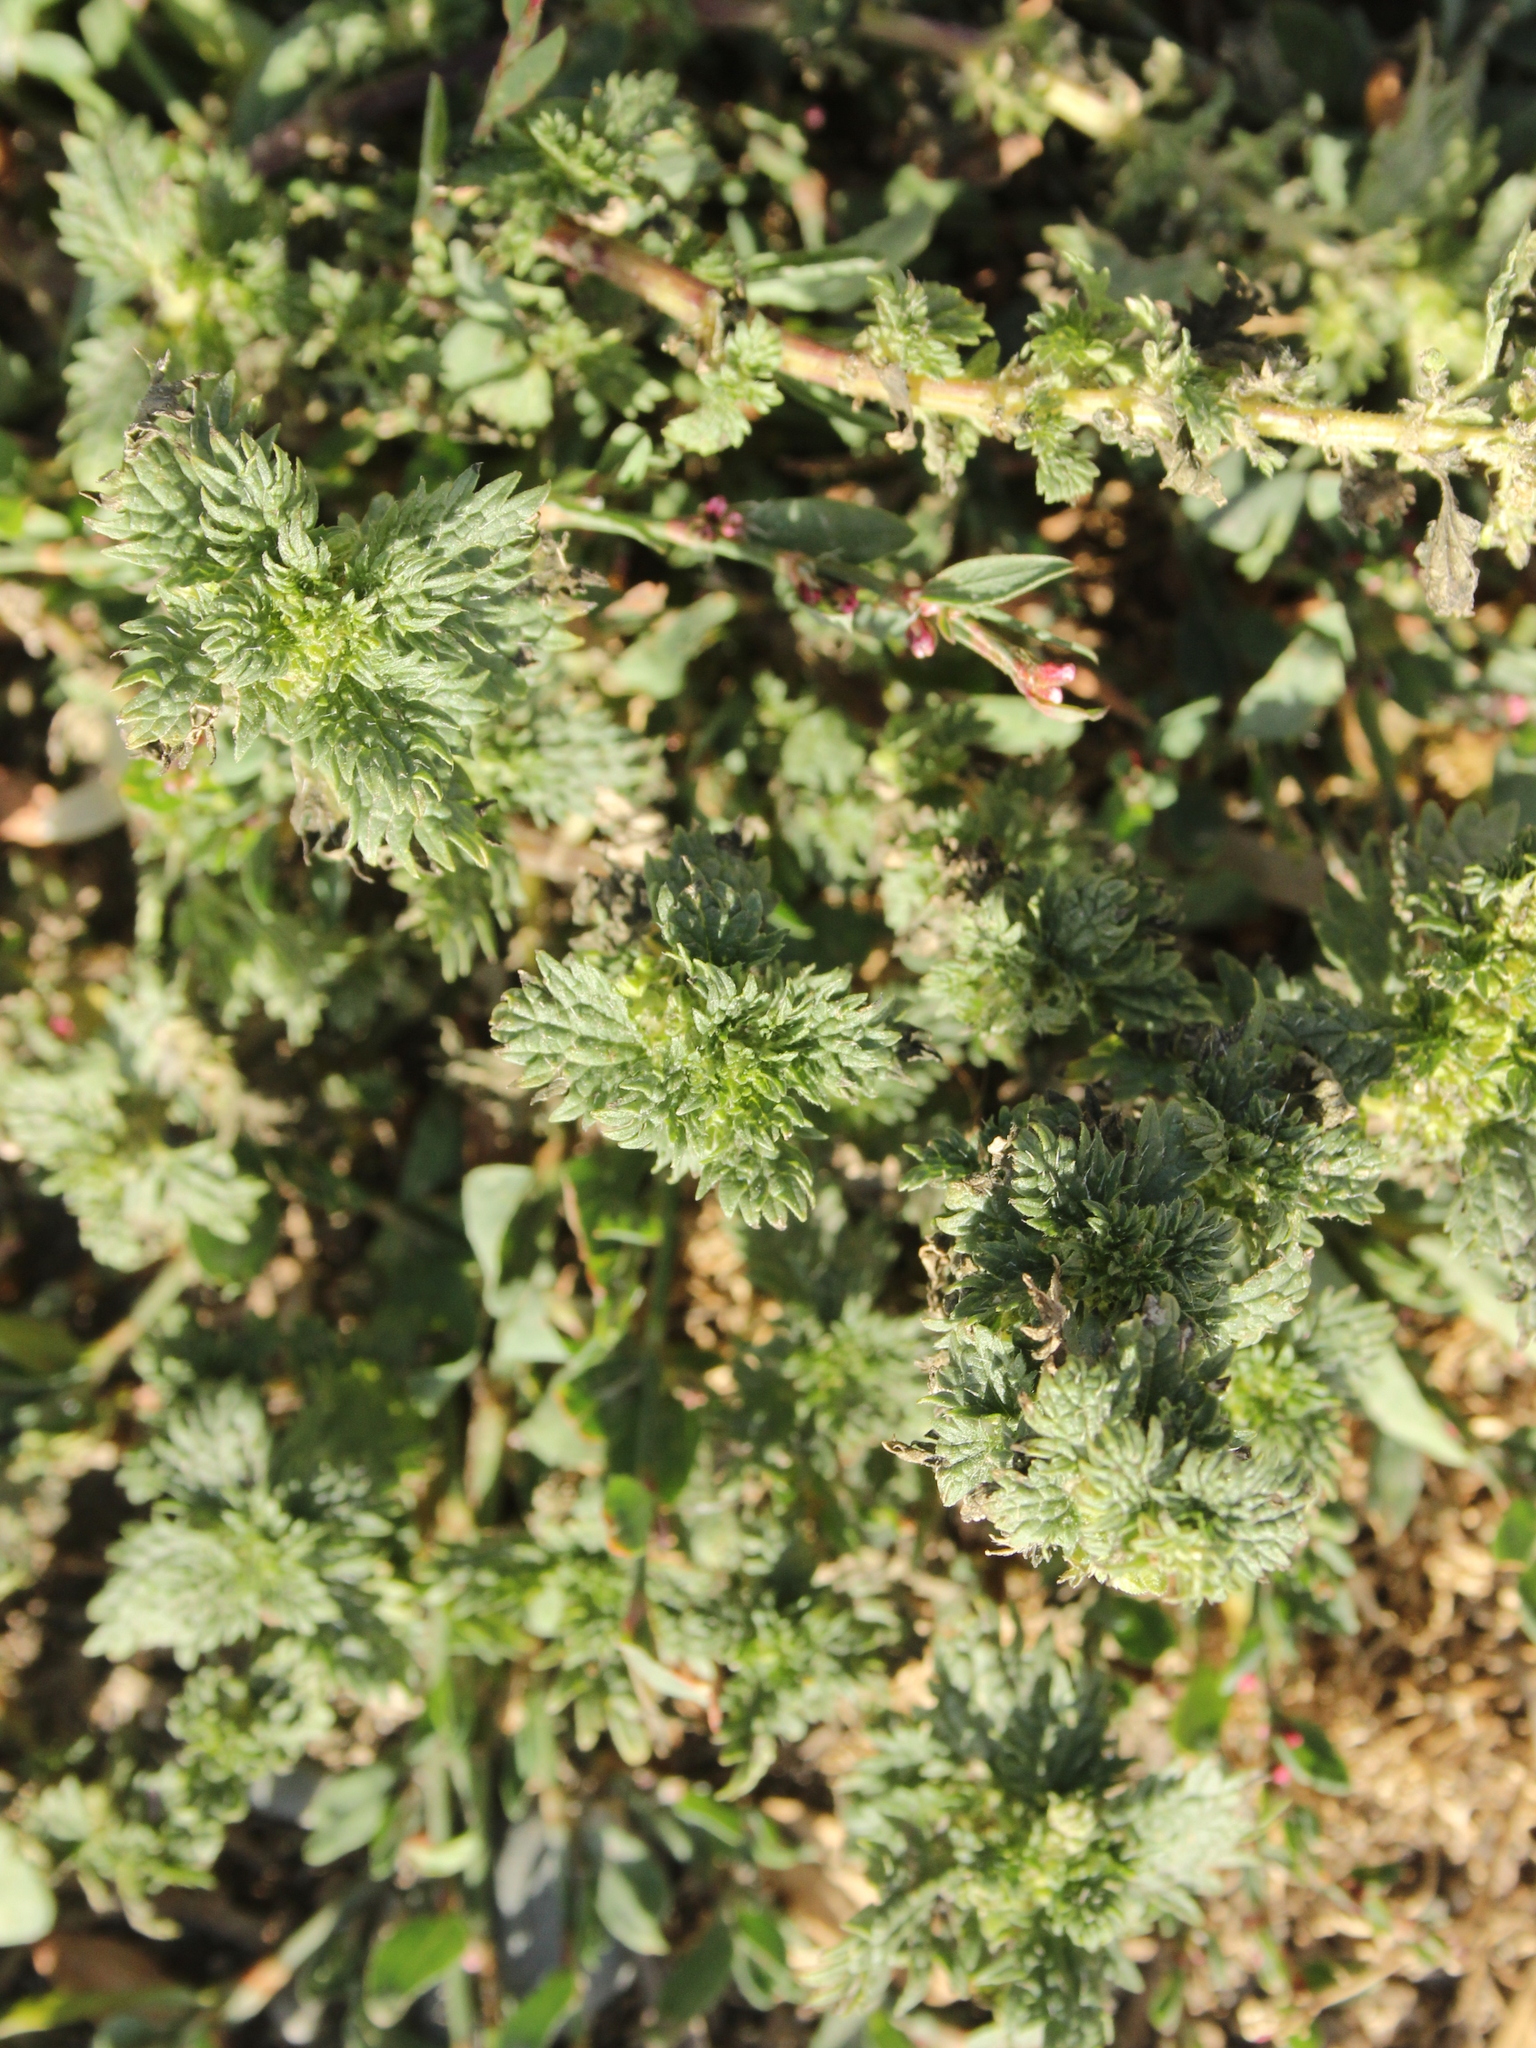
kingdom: Plantae
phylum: Tracheophyta
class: Magnoliopsida
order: Rosales
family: Urticaceae
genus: Urtica
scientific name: Urtica urens
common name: Dwarf nettle
